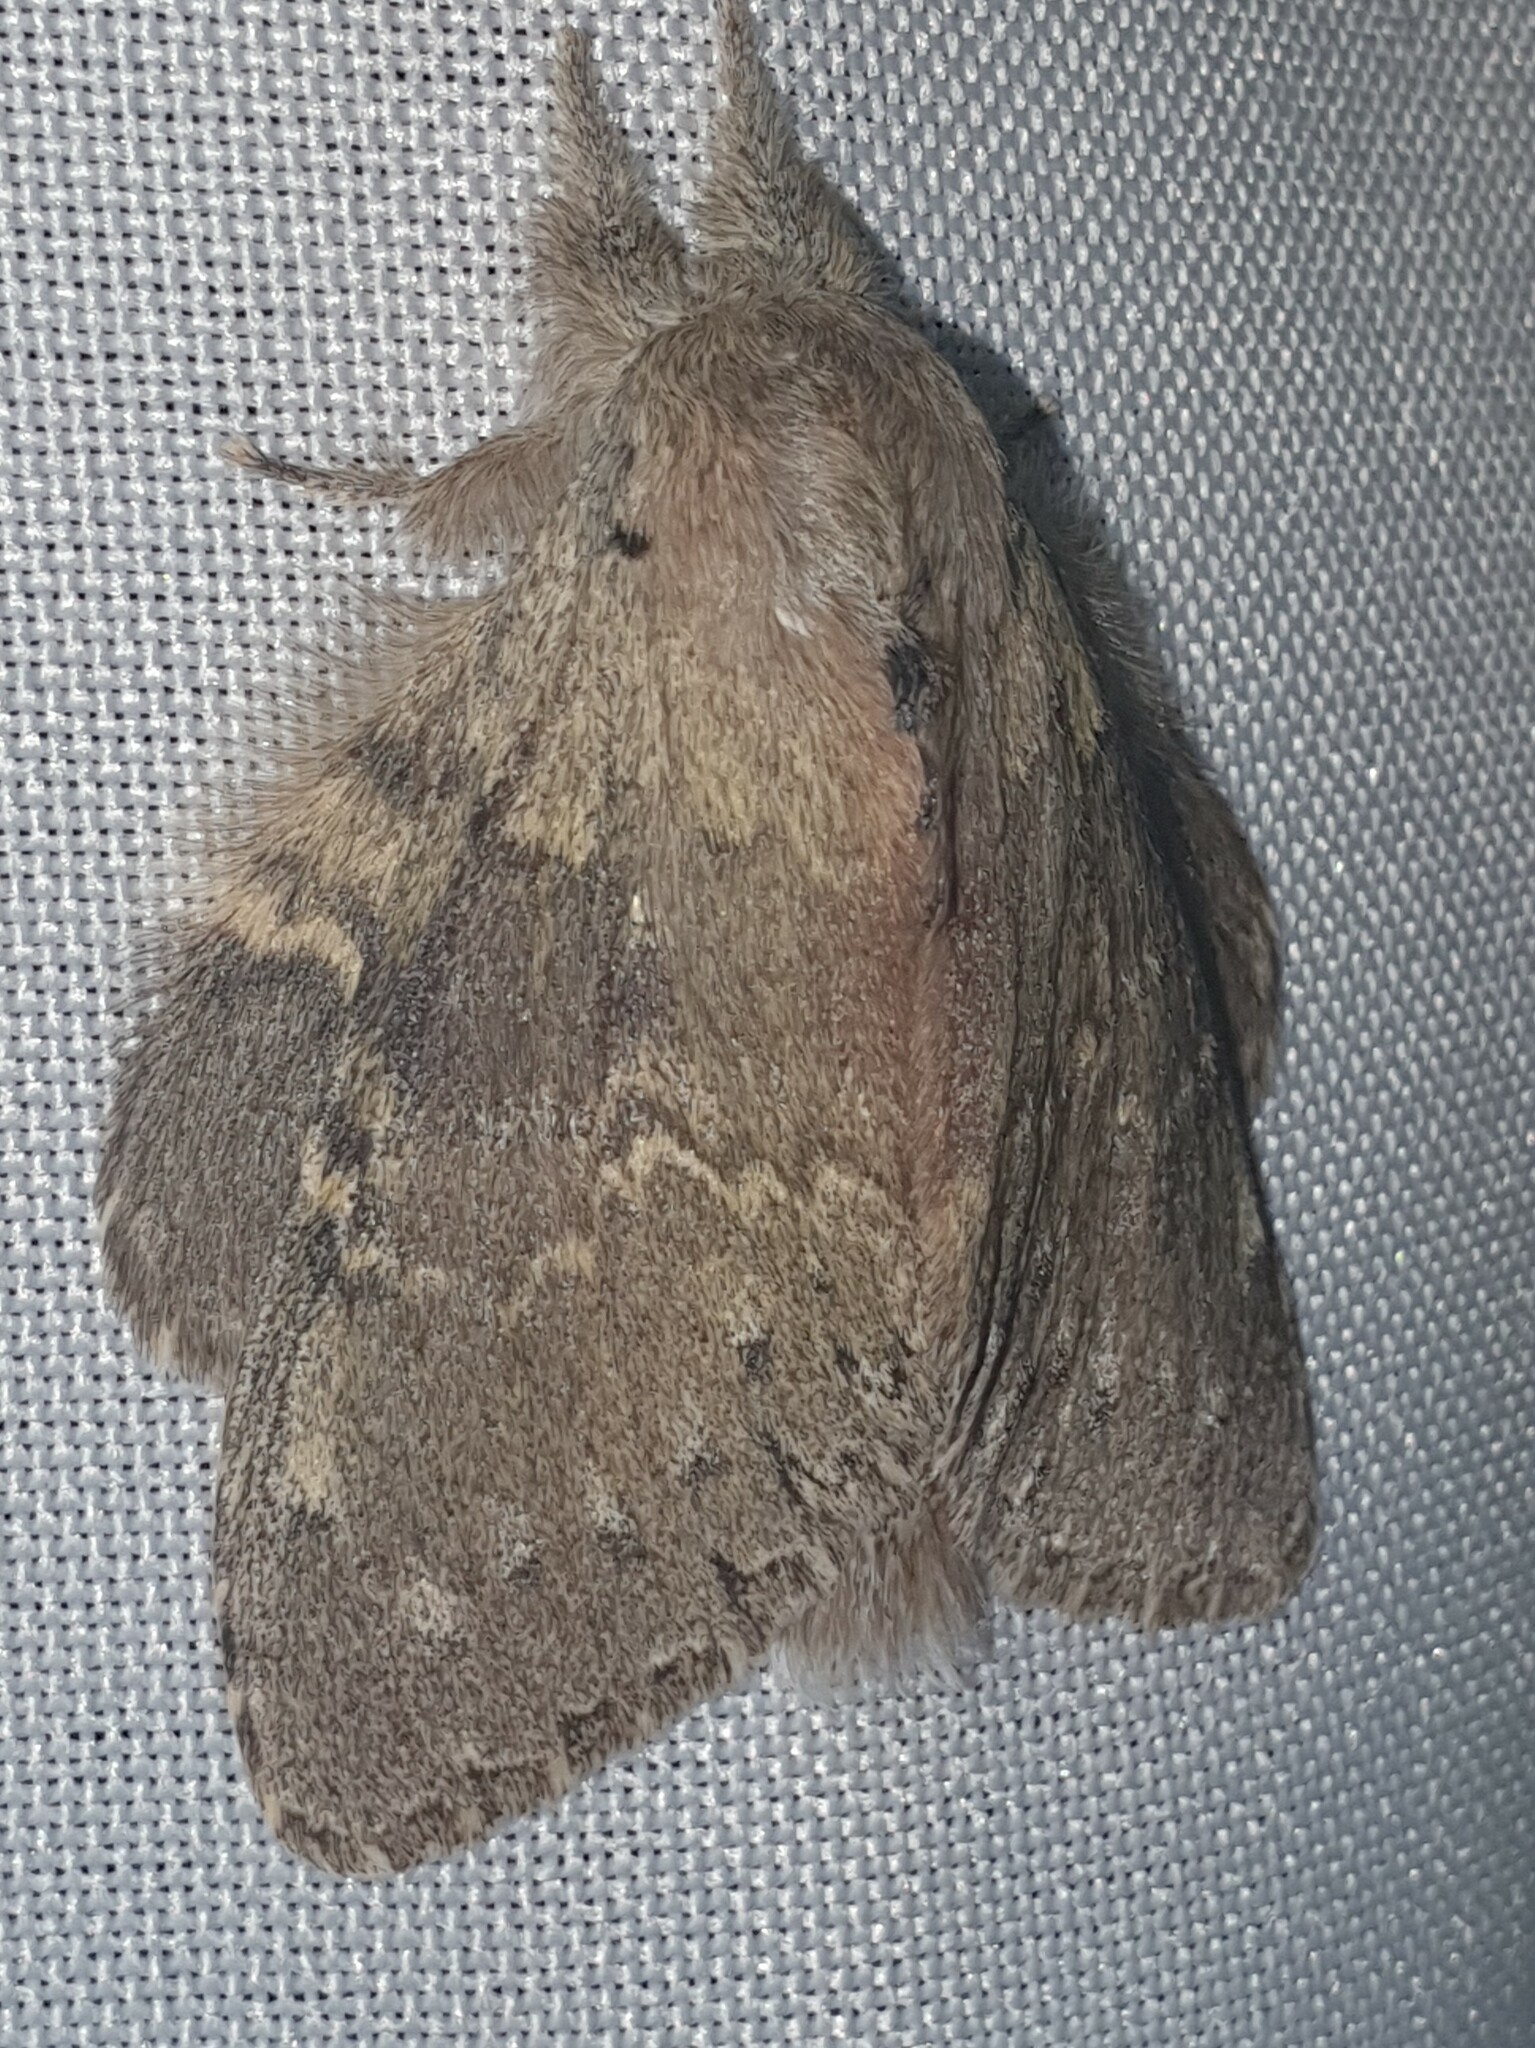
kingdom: Animalia
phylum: Arthropoda
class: Insecta
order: Lepidoptera
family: Notodontidae
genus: Stauropus
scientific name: Stauropus fagi
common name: Lobster moth
